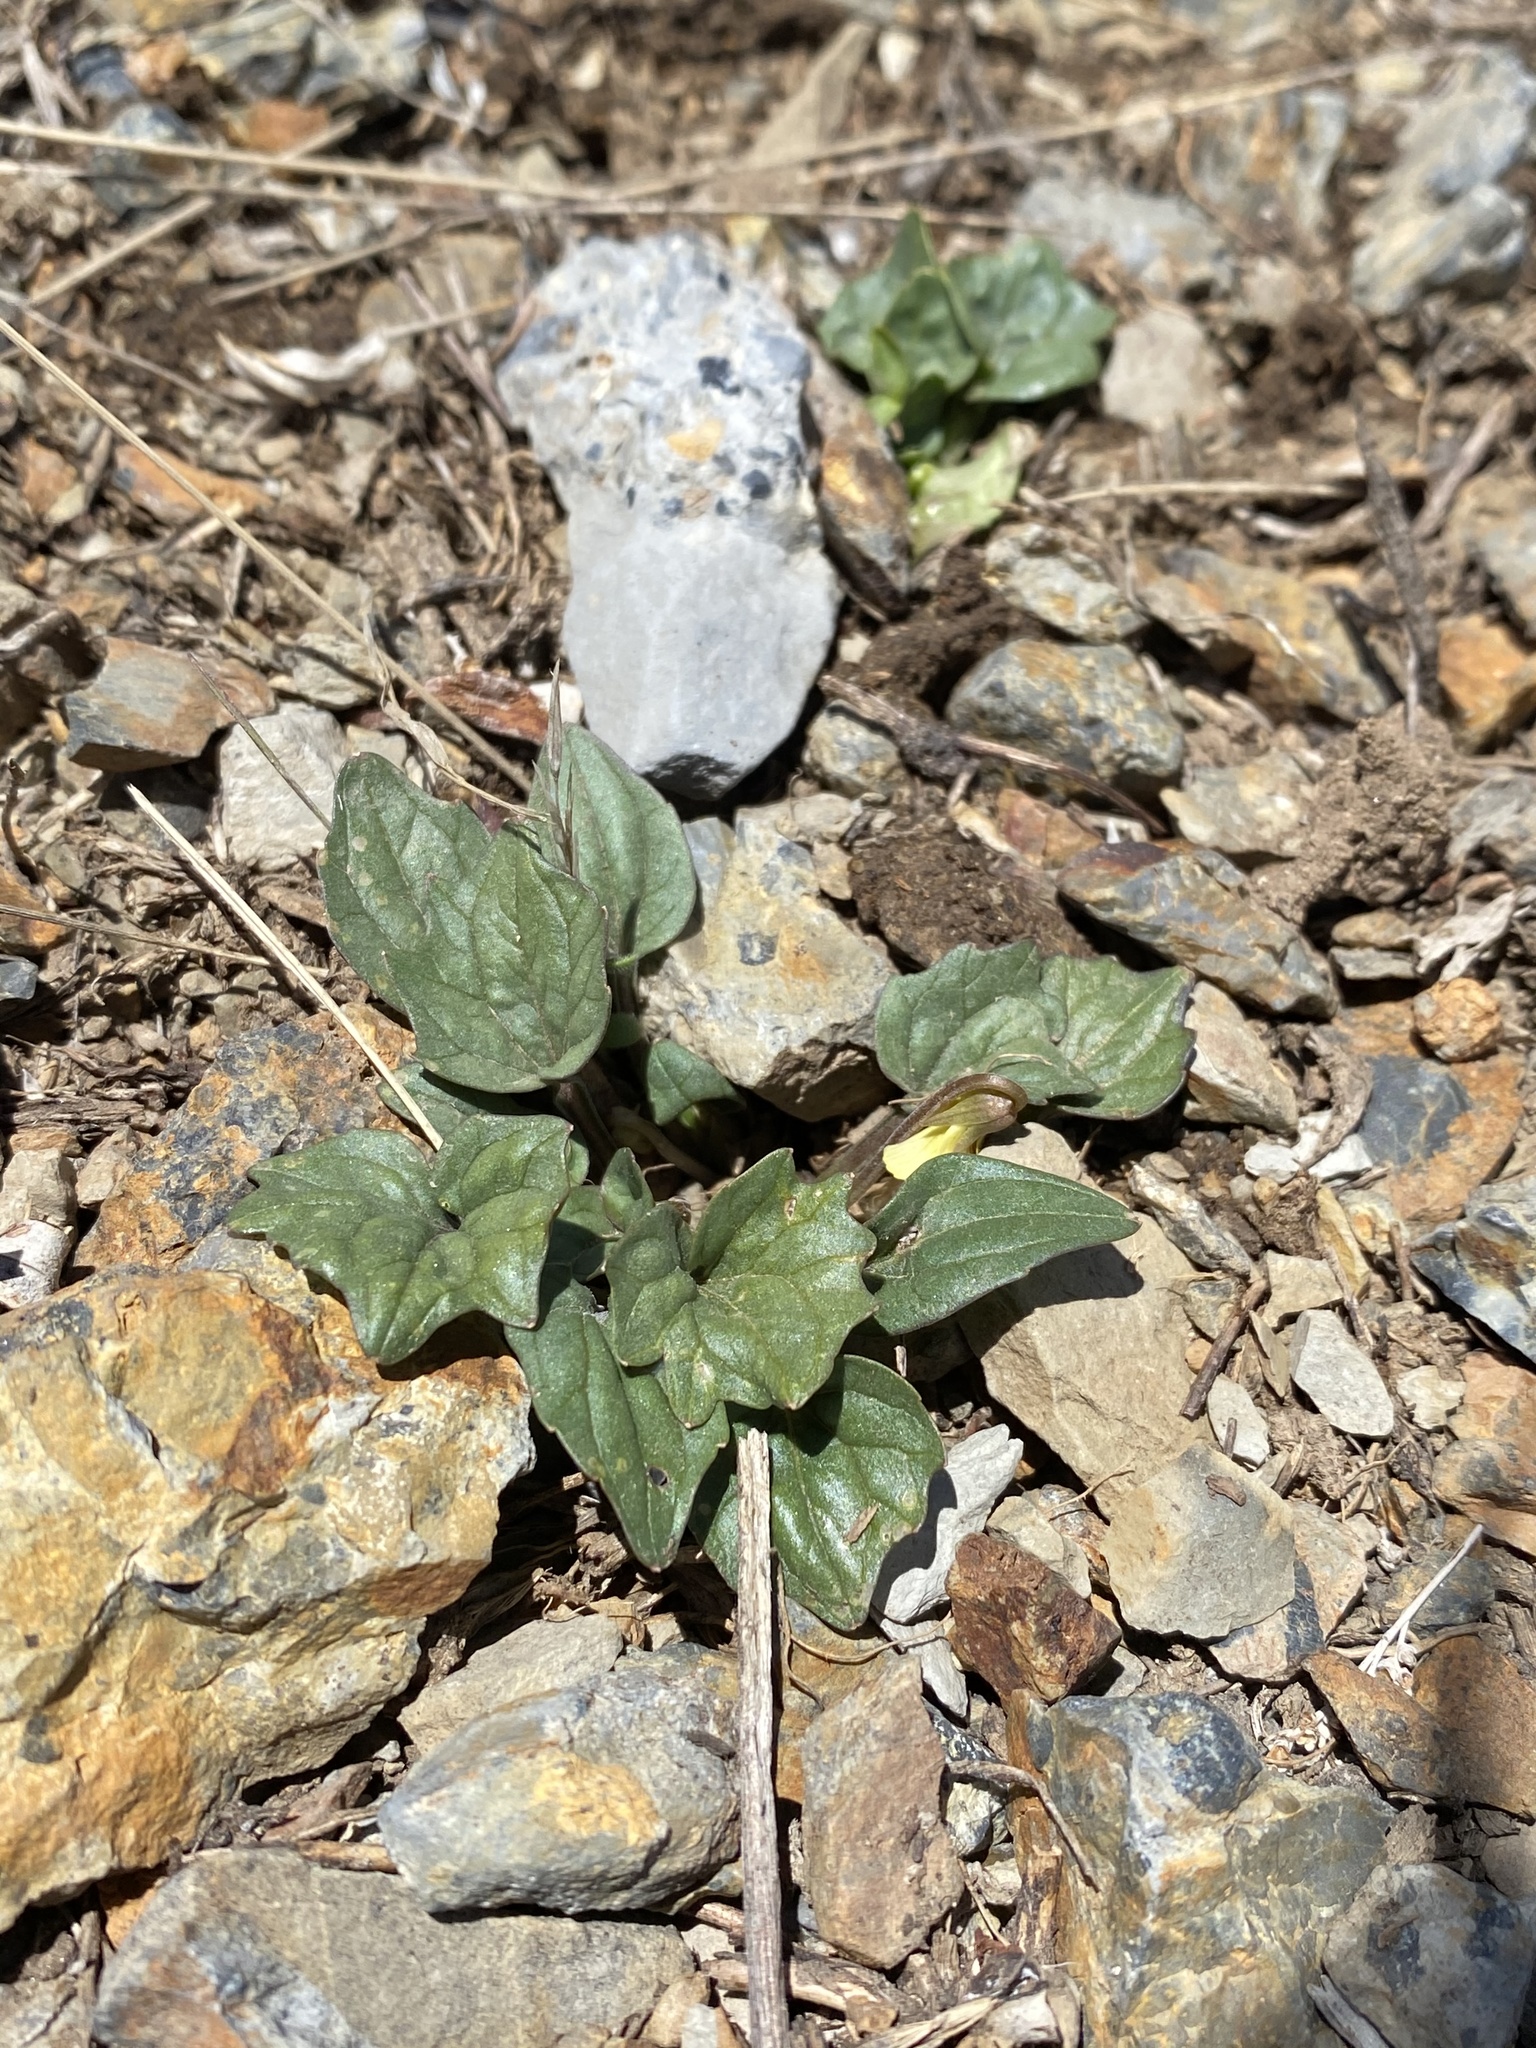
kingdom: Plantae
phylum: Tracheophyta
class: Magnoliopsida
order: Malpighiales
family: Violaceae
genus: Viola
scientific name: Viola purpurea
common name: Pine violet
